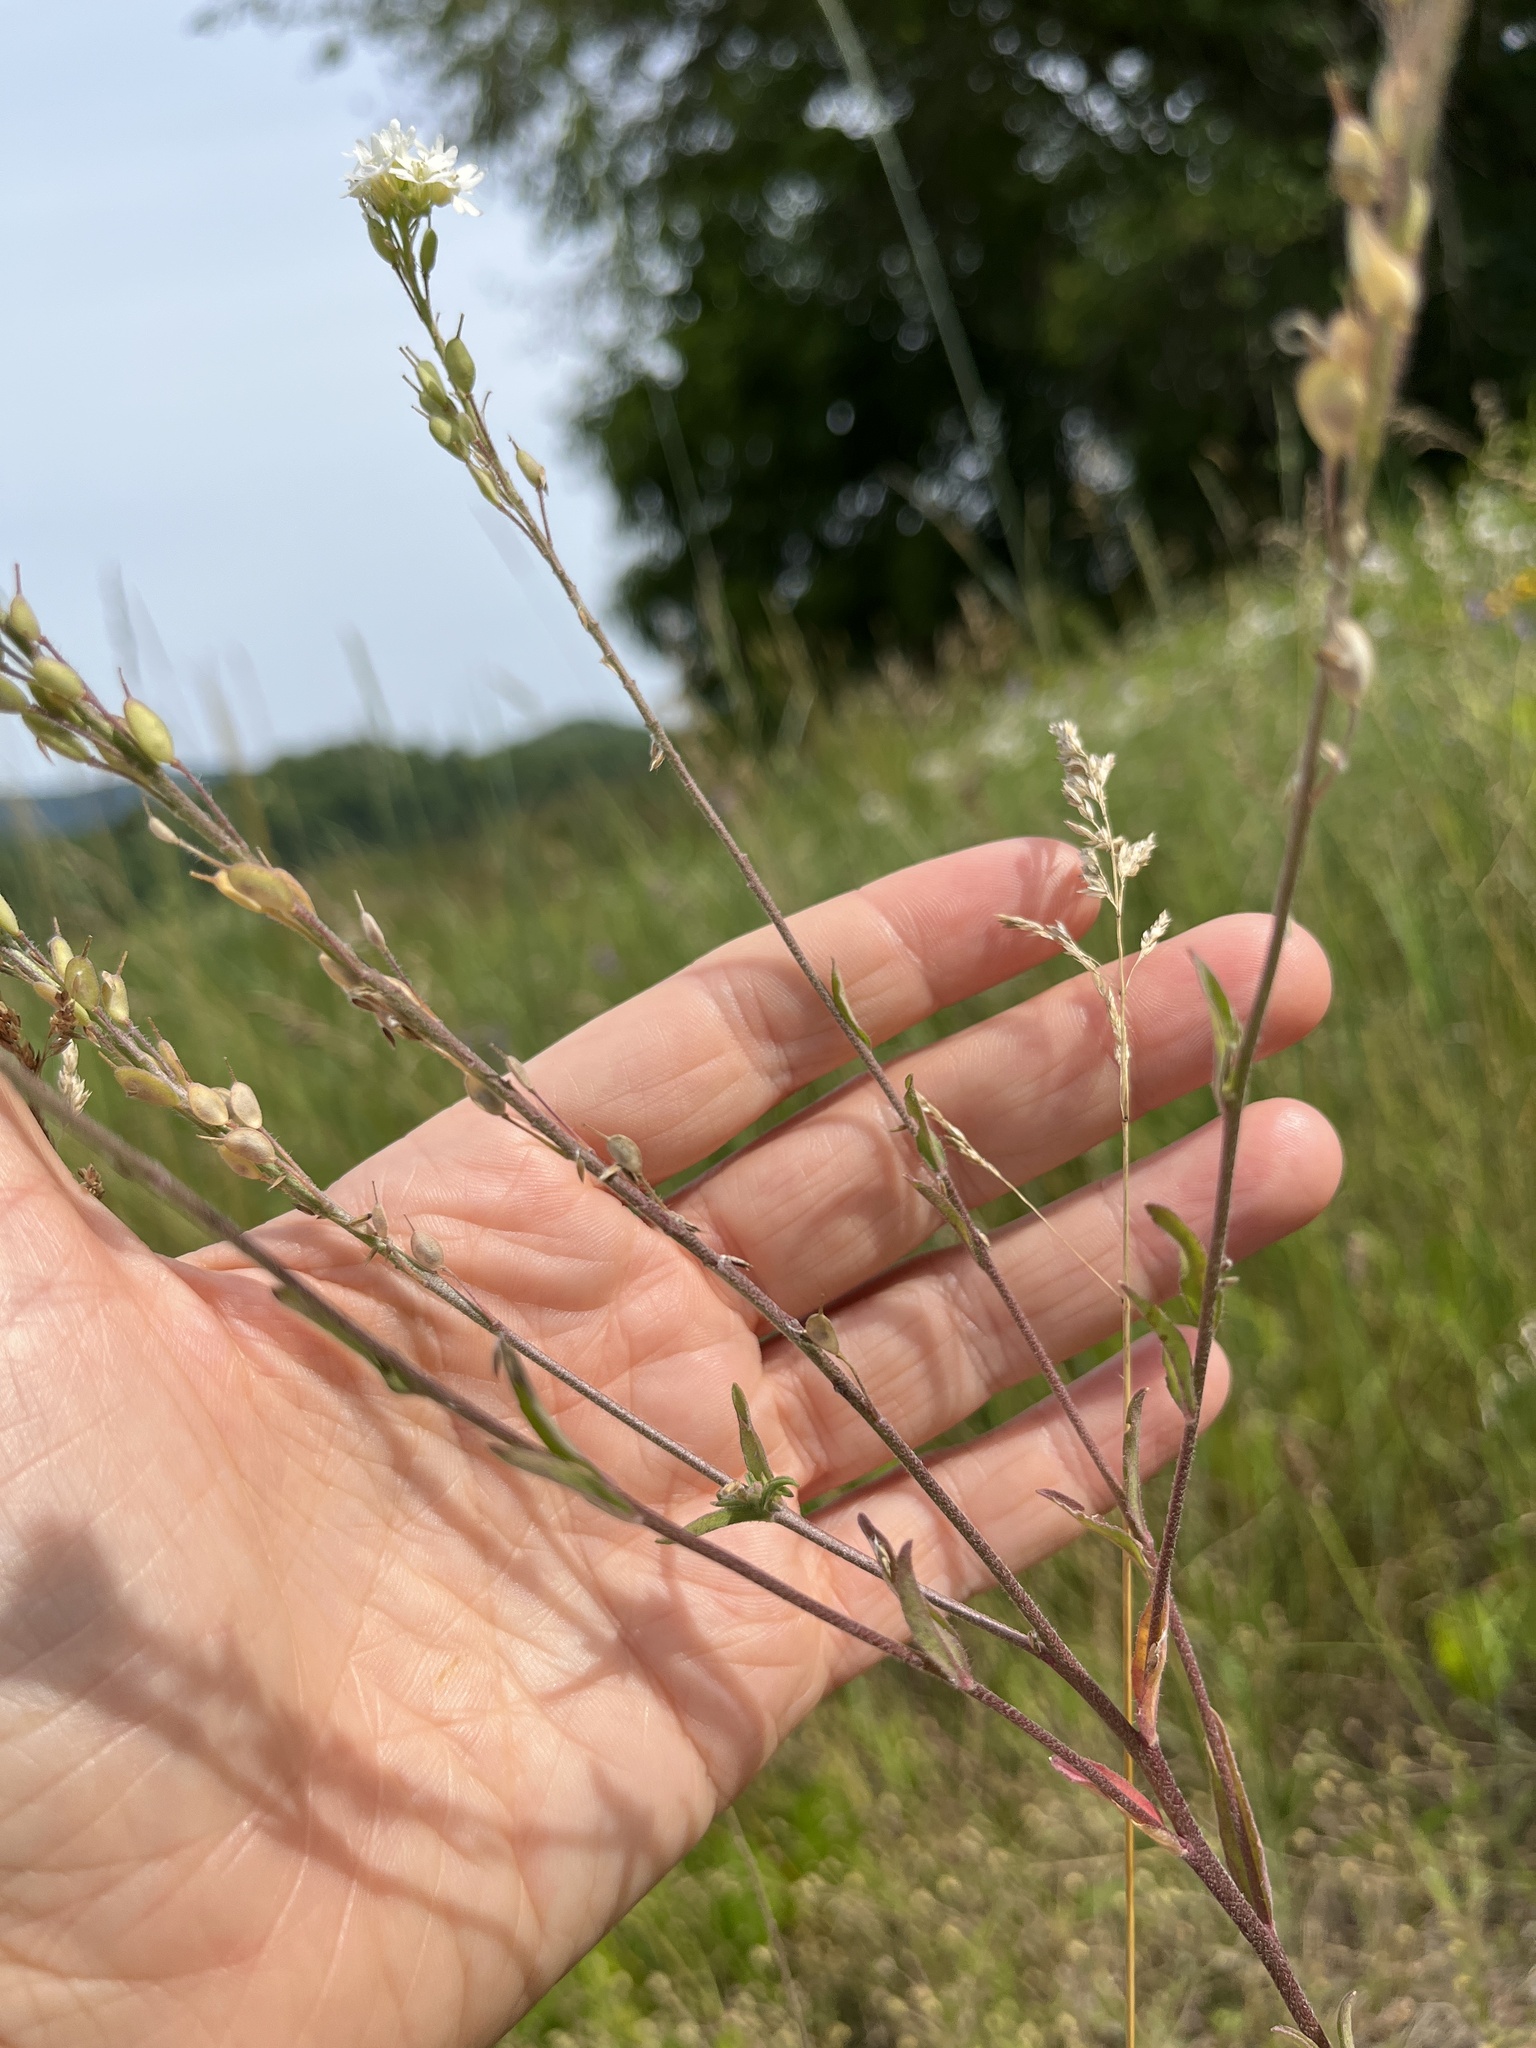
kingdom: Plantae
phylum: Tracheophyta
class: Magnoliopsida
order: Brassicales
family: Brassicaceae
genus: Berteroa
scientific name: Berteroa incana
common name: Hoary alison
